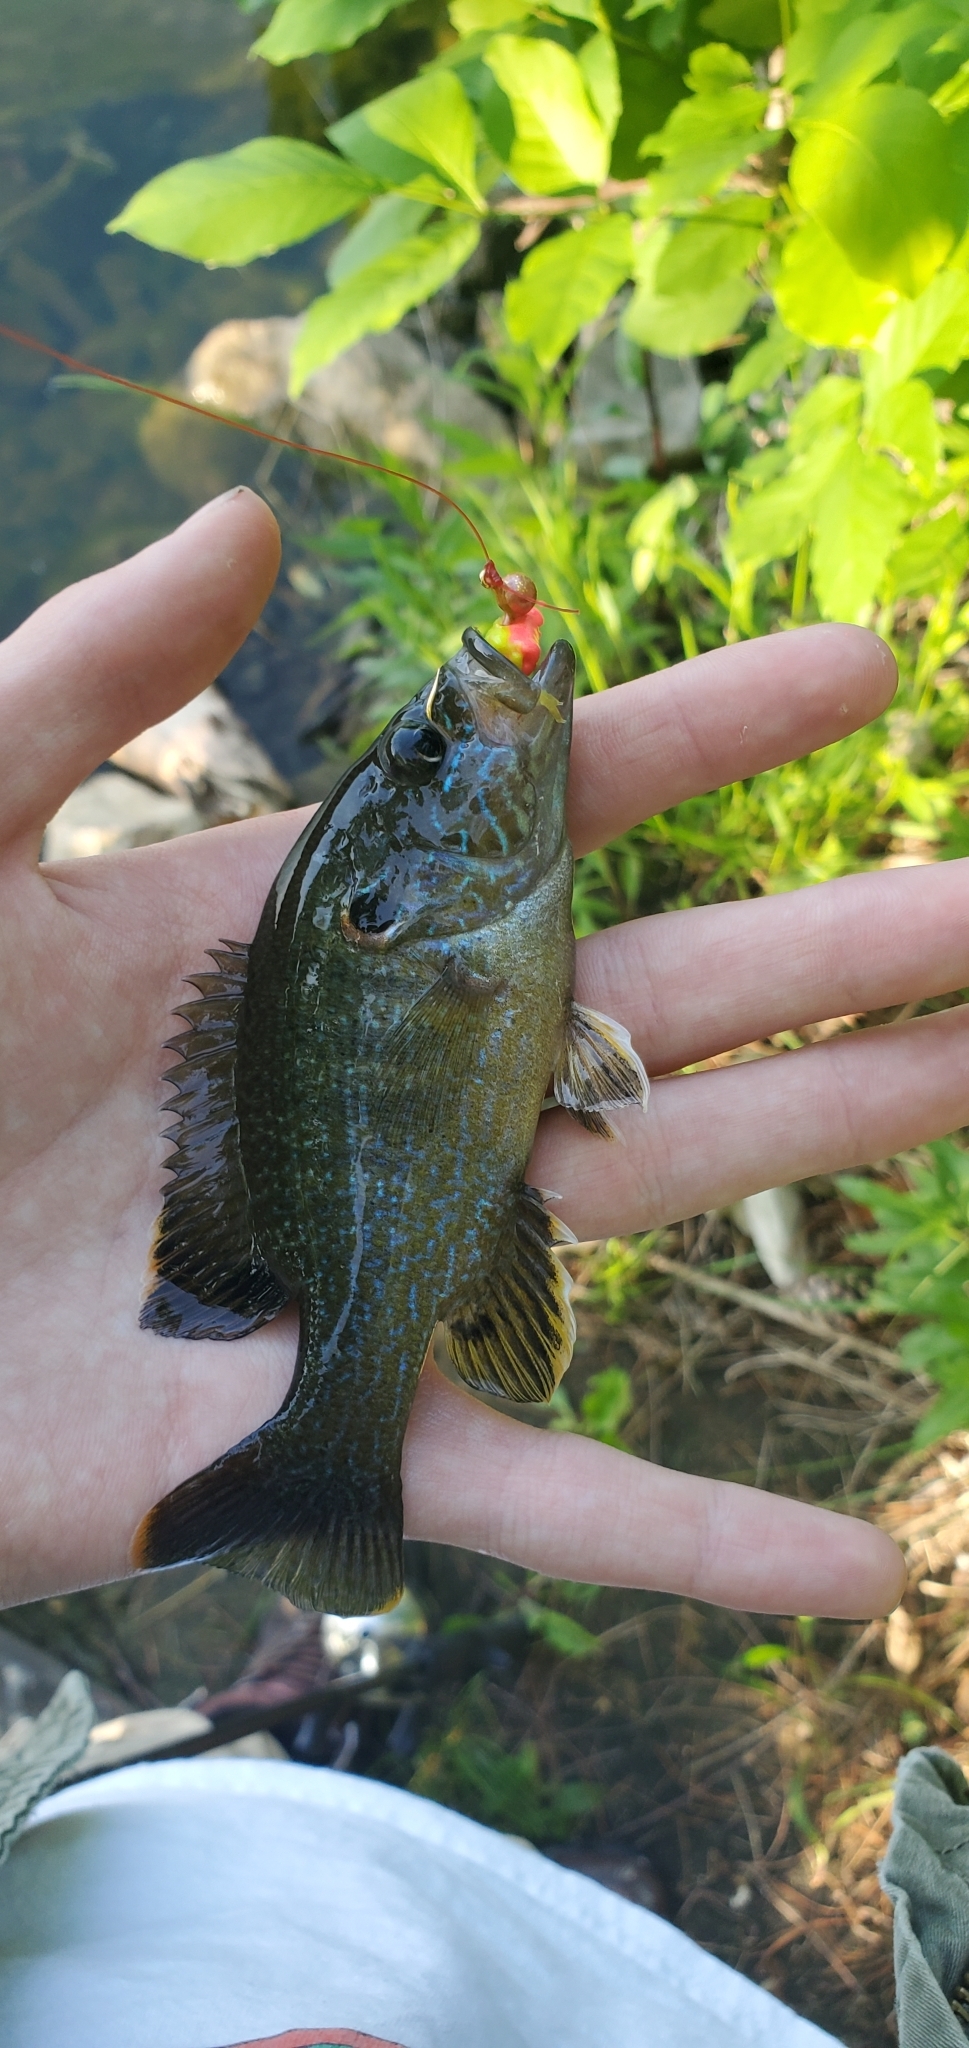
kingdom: Animalia
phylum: Chordata
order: Perciformes
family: Centrarchidae
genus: Lepomis
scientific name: Lepomis cyanellus
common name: Green sunfish
